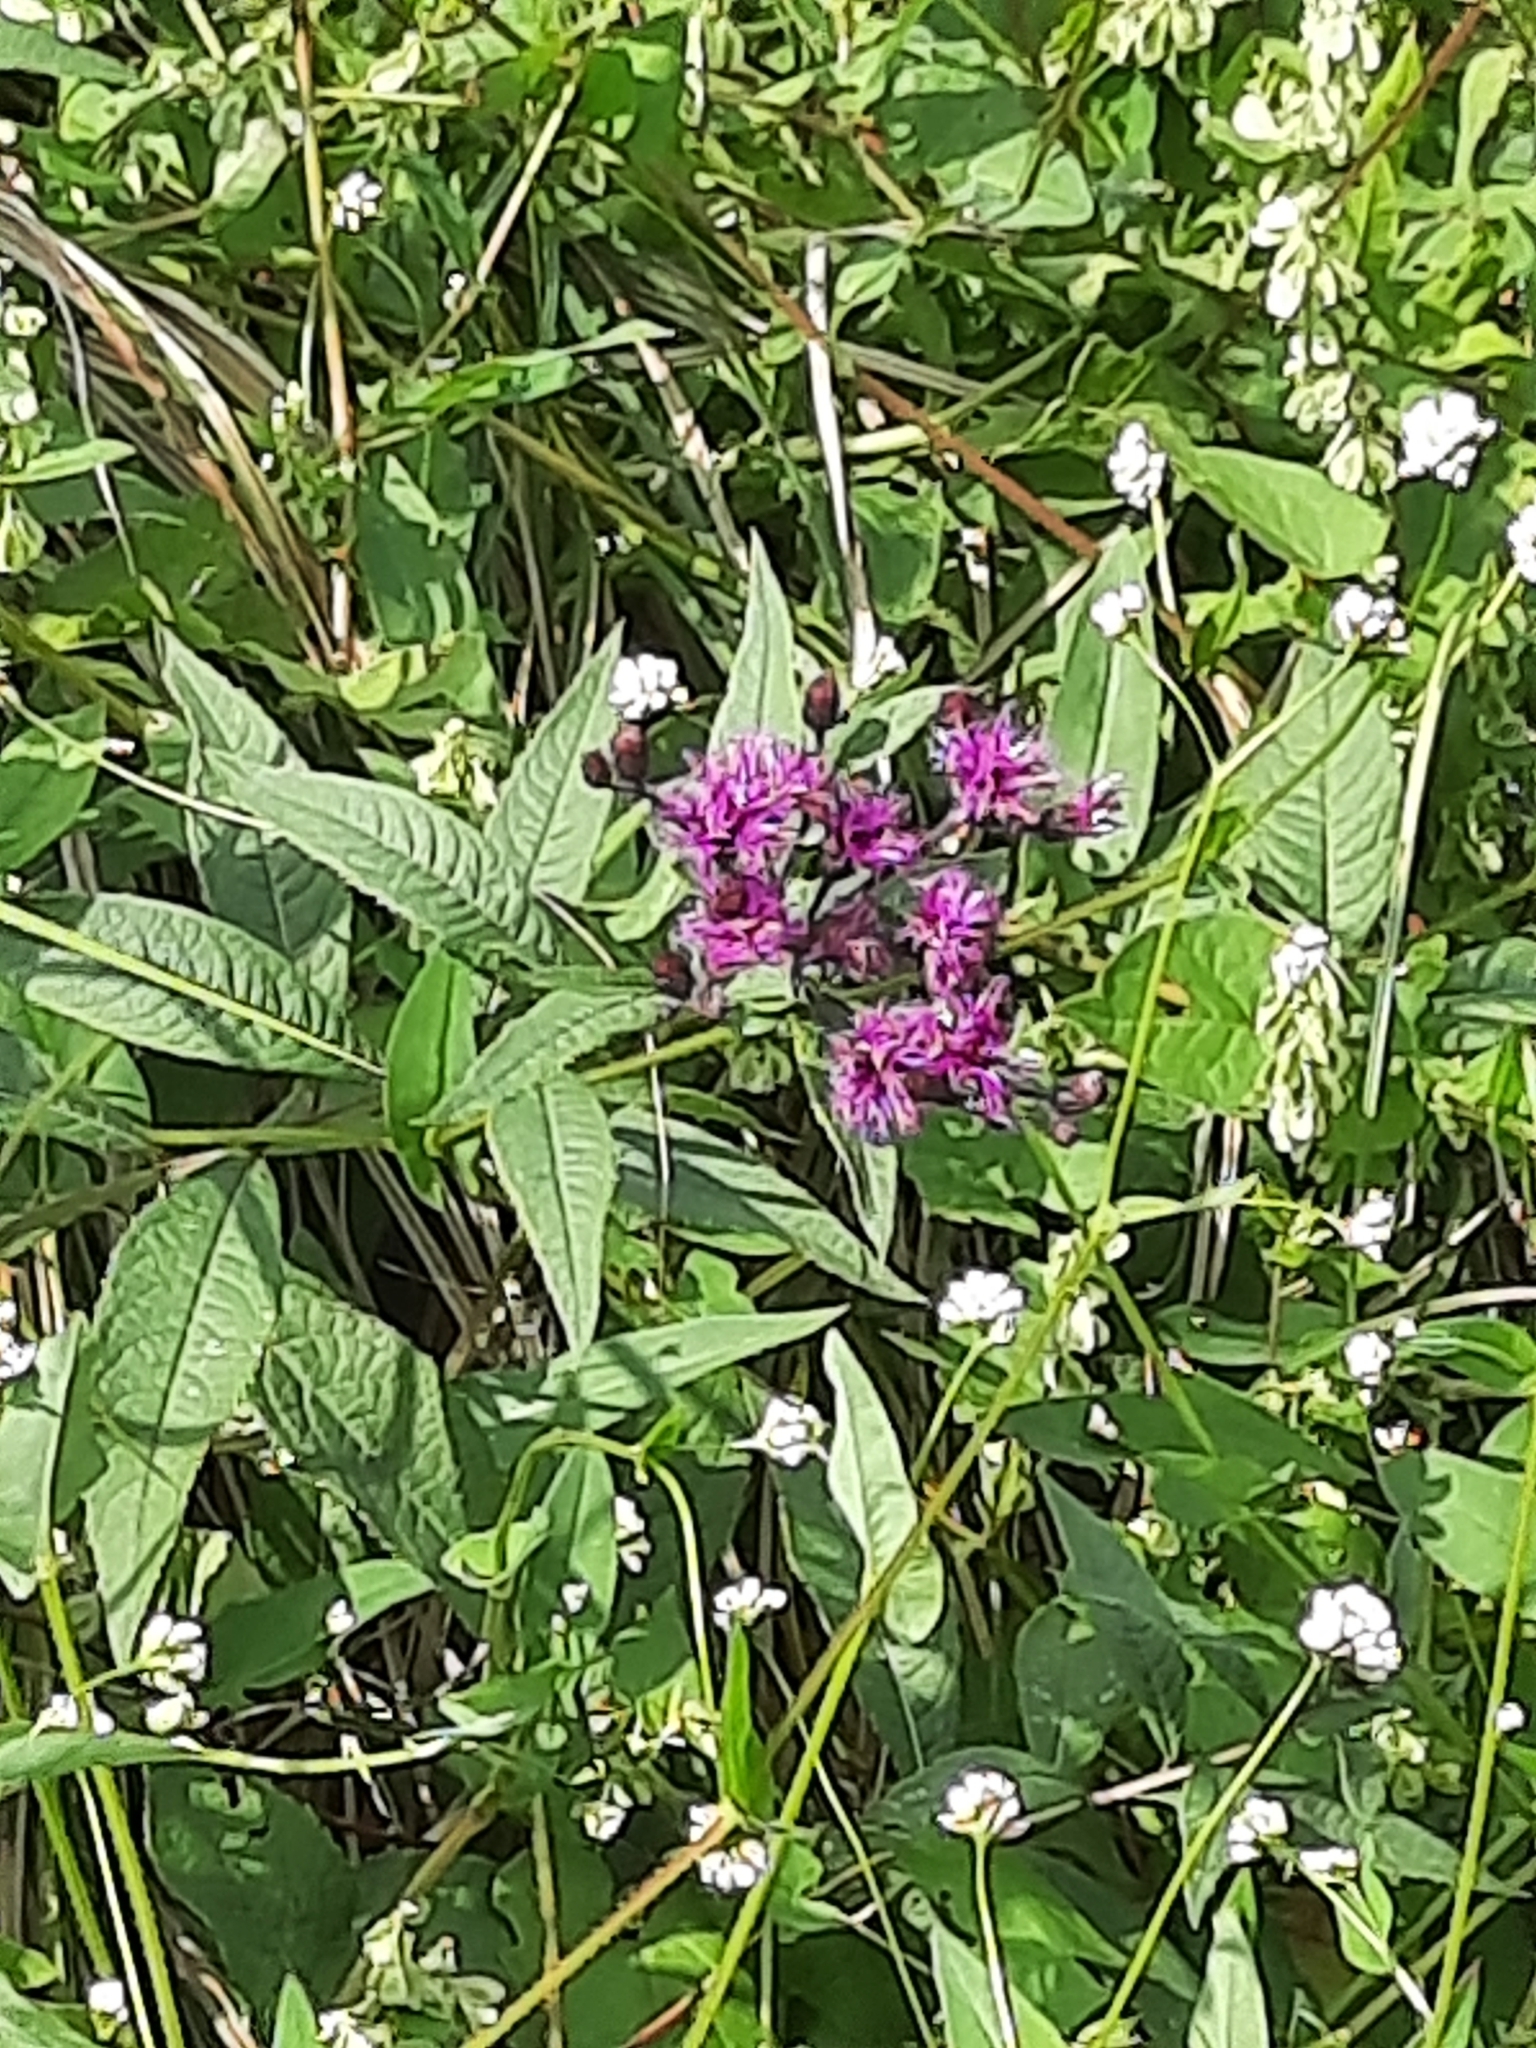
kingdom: Plantae
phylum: Tracheophyta
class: Magnoliopsida
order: Asterales
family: Asteraceae
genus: Vernonia
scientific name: Vernonia noveboracensis
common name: New york ironweed
